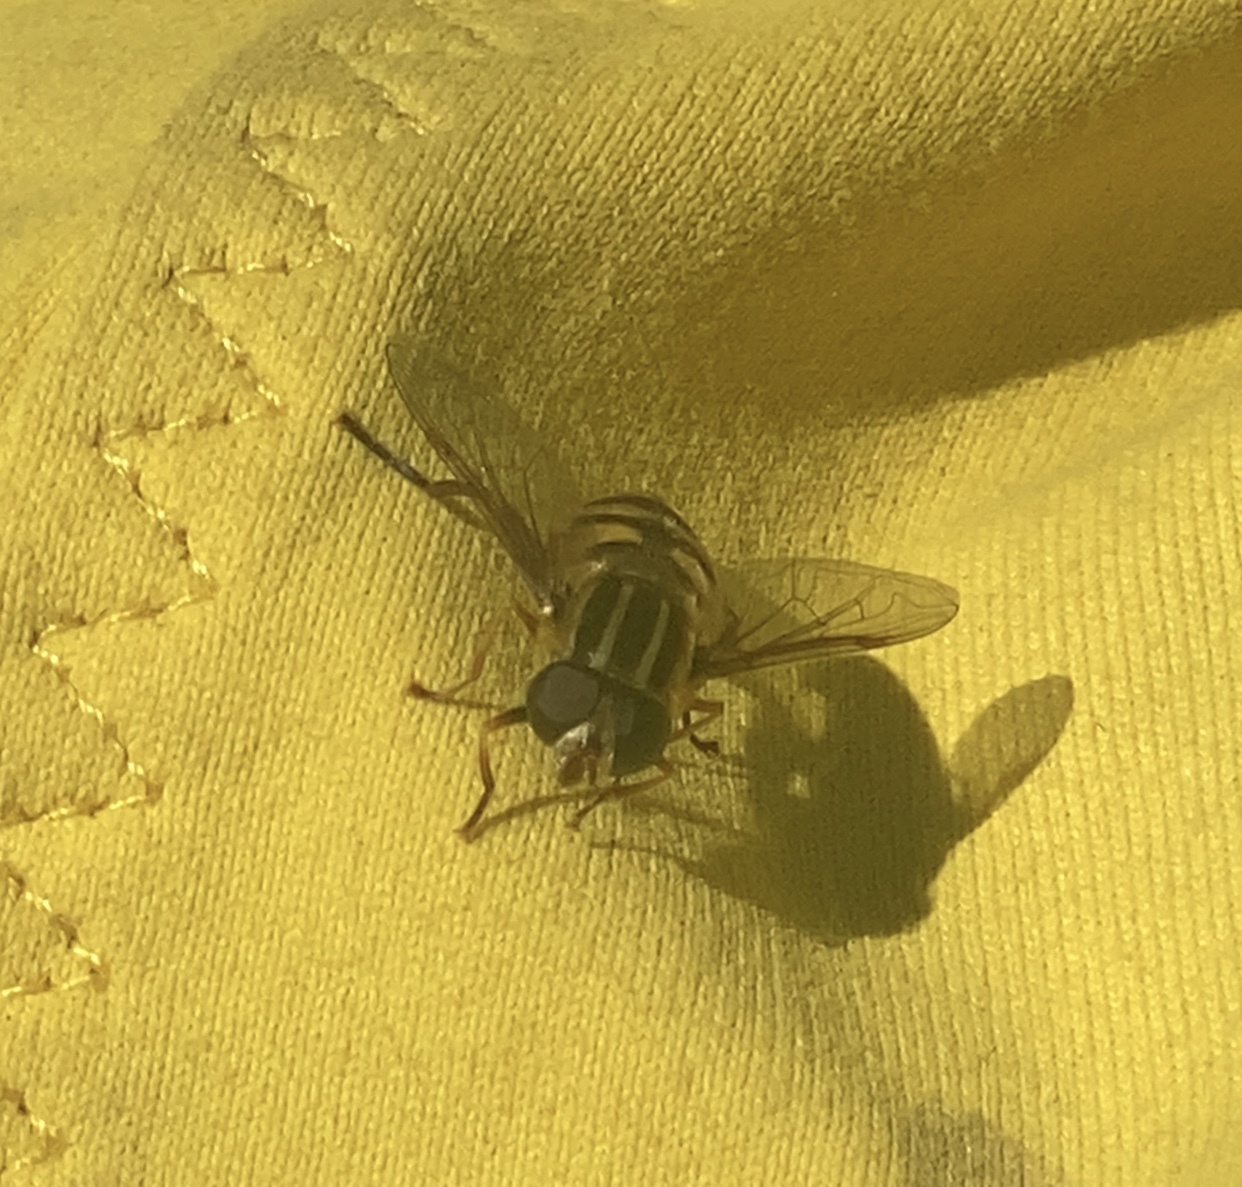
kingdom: Animalia
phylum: Arthropoda
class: Insecta
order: Diptera
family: Syrphidae
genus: Helophilus
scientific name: Helophilus fasciatus
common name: Narrow-headed marsh fly
